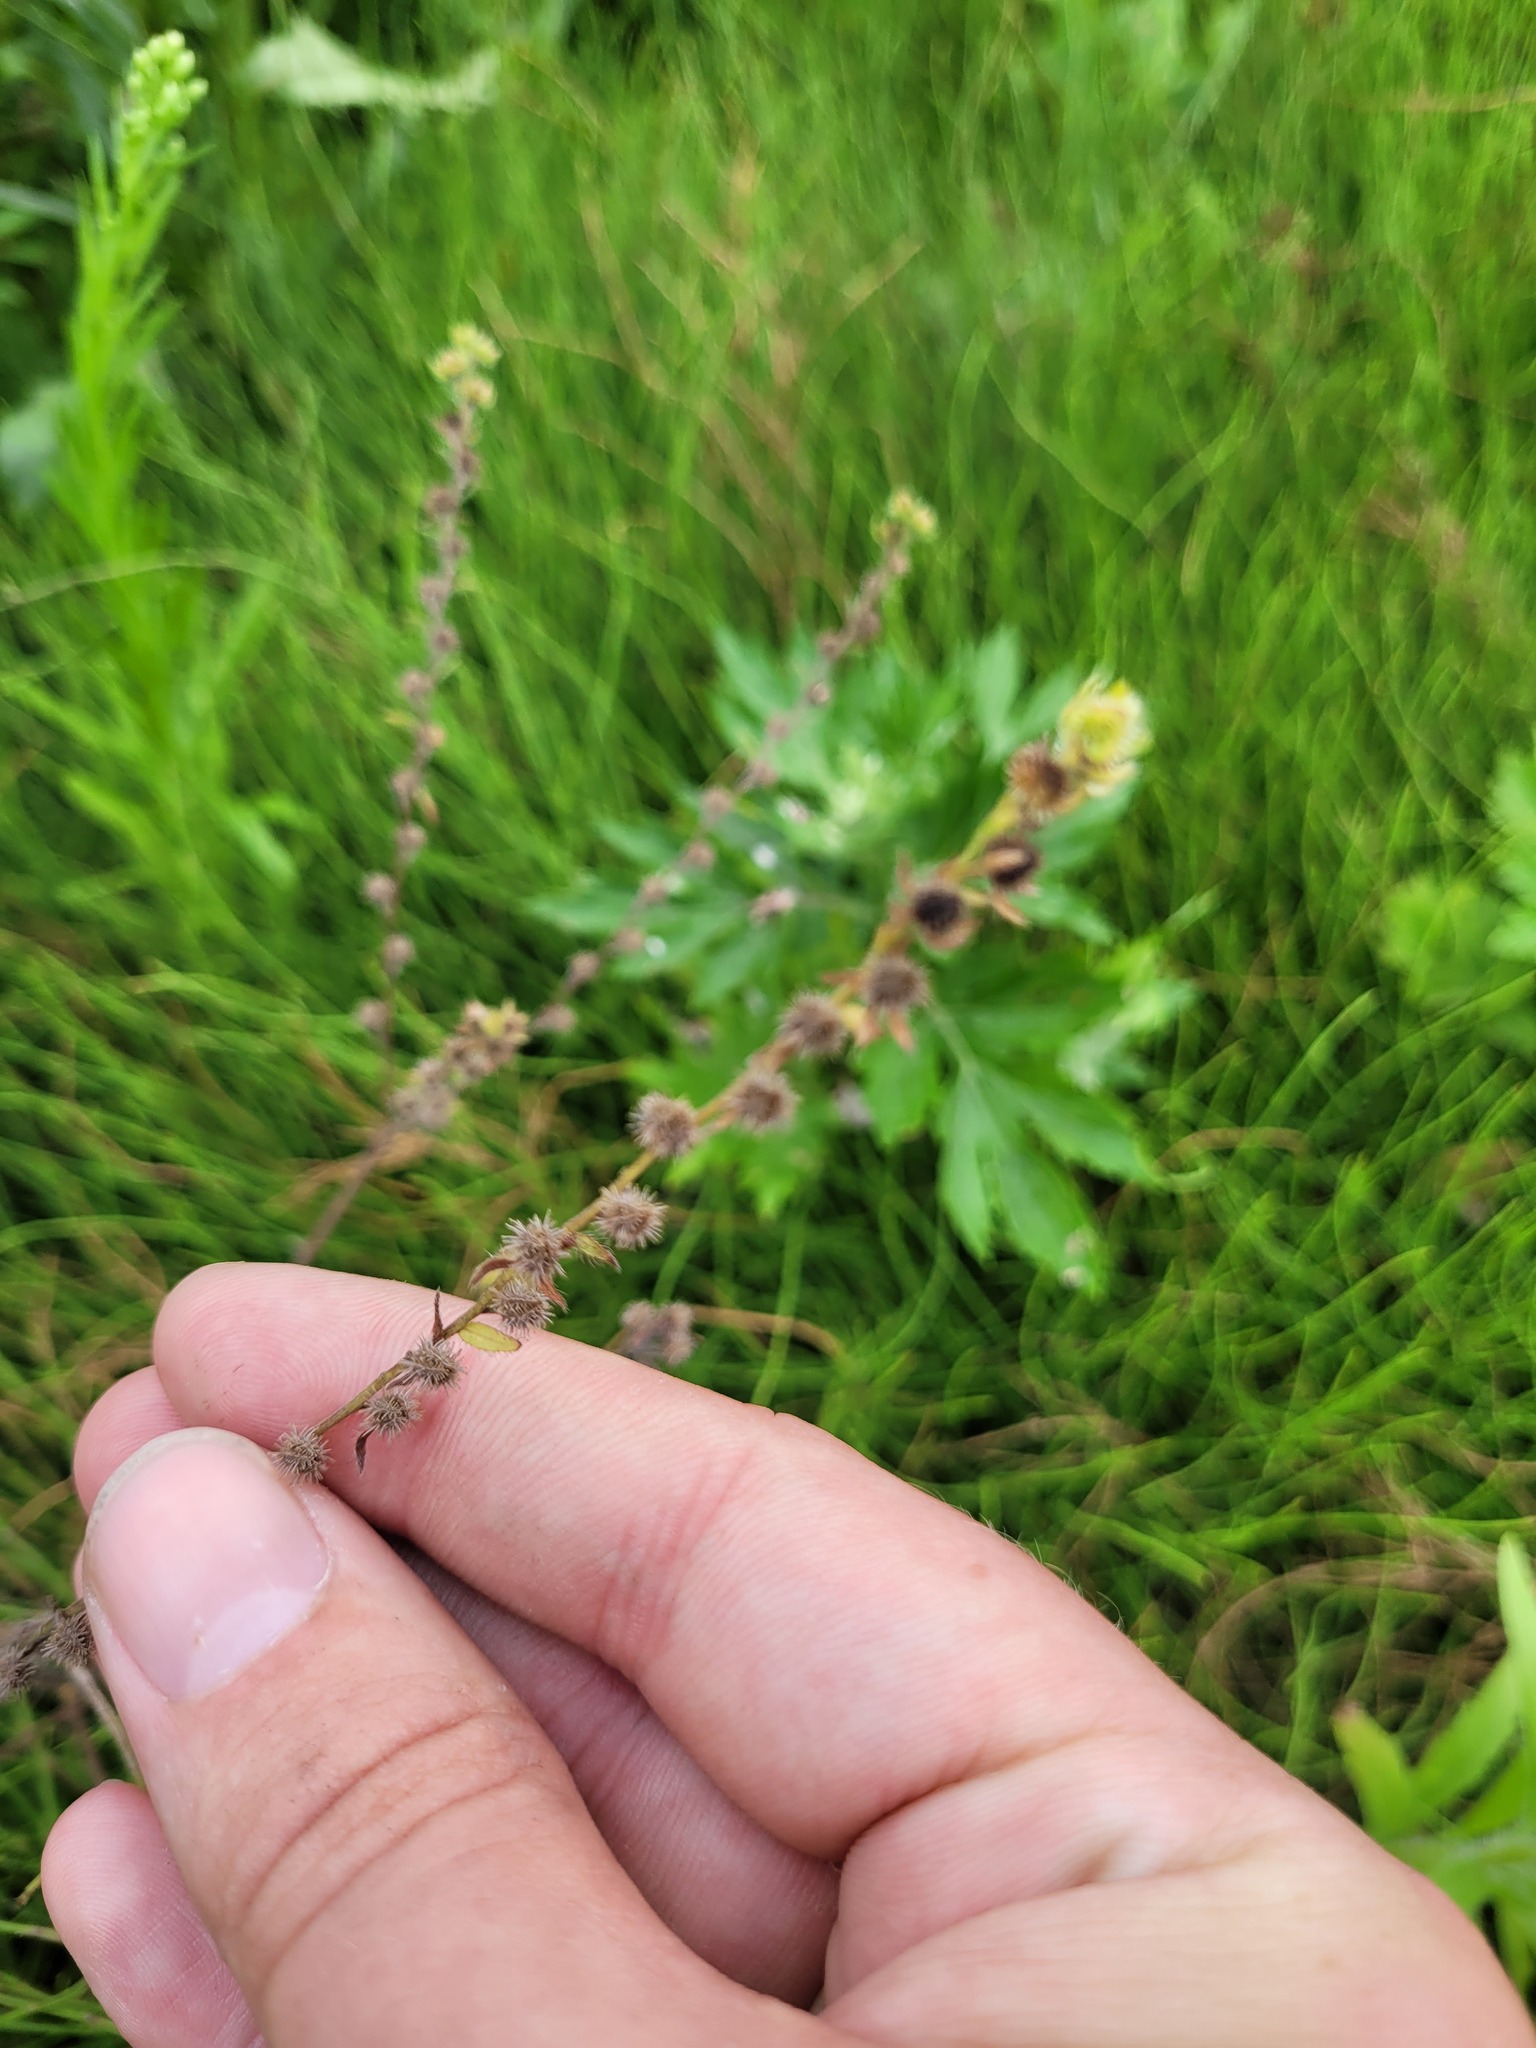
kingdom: Plantae
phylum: Tracheophyta
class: Magnoliopsida
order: Boraginales
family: Boraginaceae
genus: Lappula
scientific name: Lappula squarrosa
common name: European stickseed
